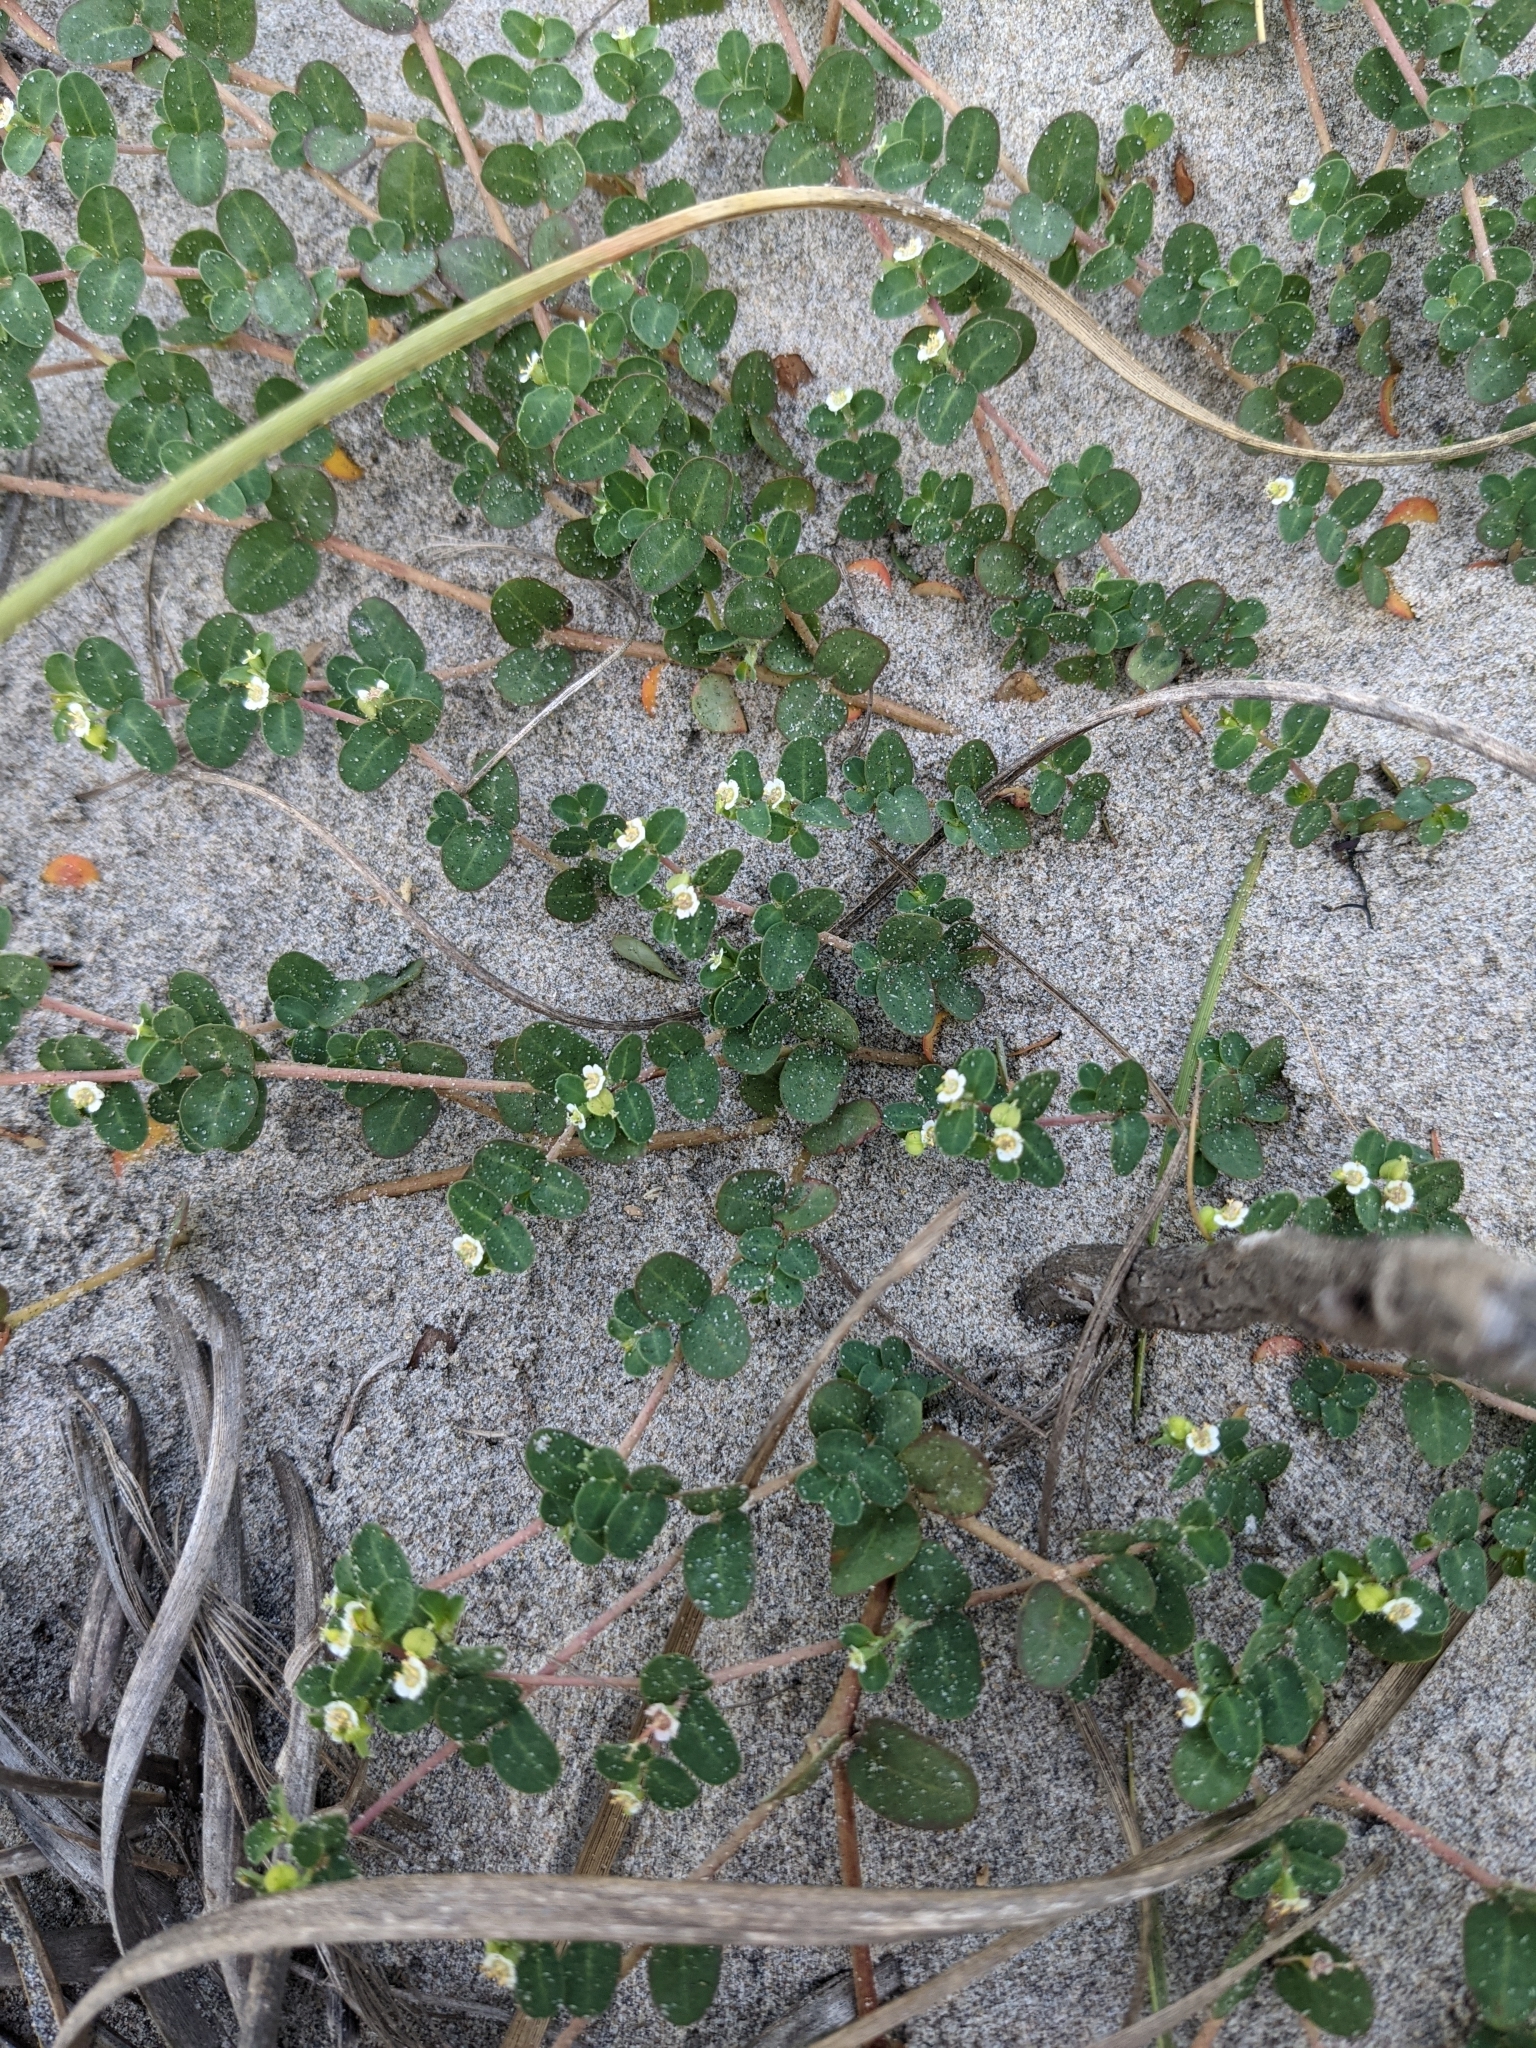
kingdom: Plantae
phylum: Tracheophyta
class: Magnoliopsida
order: Malpighiales
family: Euphorbiaceae
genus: Euphorbia
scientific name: Euphorbia cordifolia
